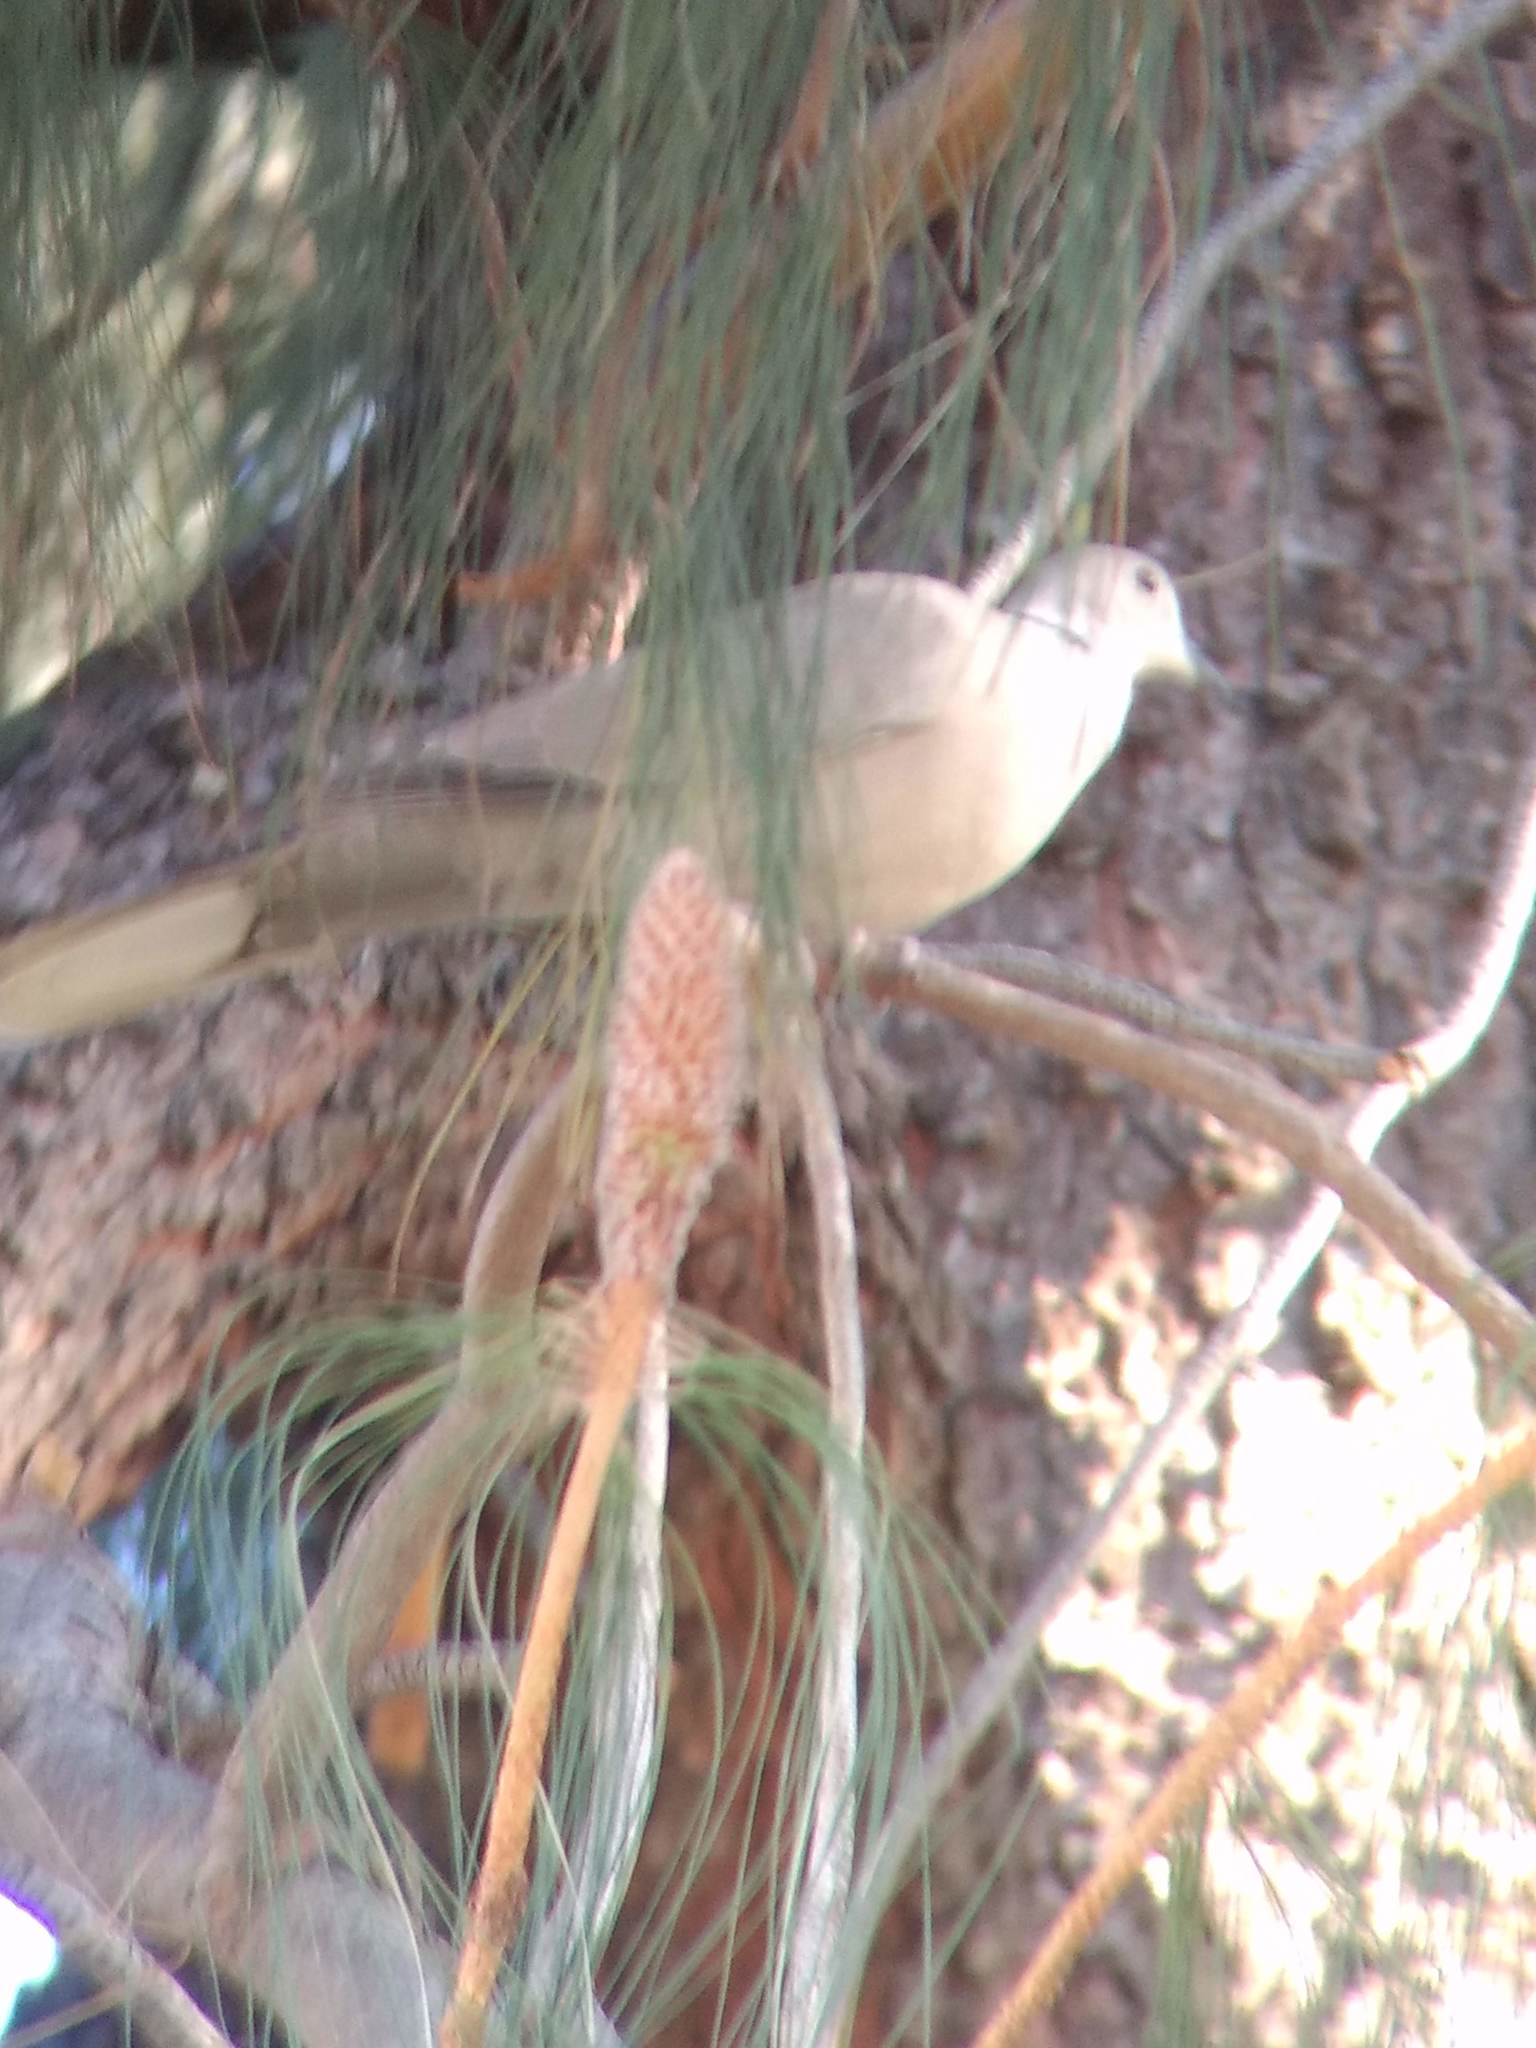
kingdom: Animalia
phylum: Chordata
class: Aves
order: Columbiformes
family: Columbidae
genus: Streptopelia
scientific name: Streptopelia decaocto
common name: Eurasian collared dove
